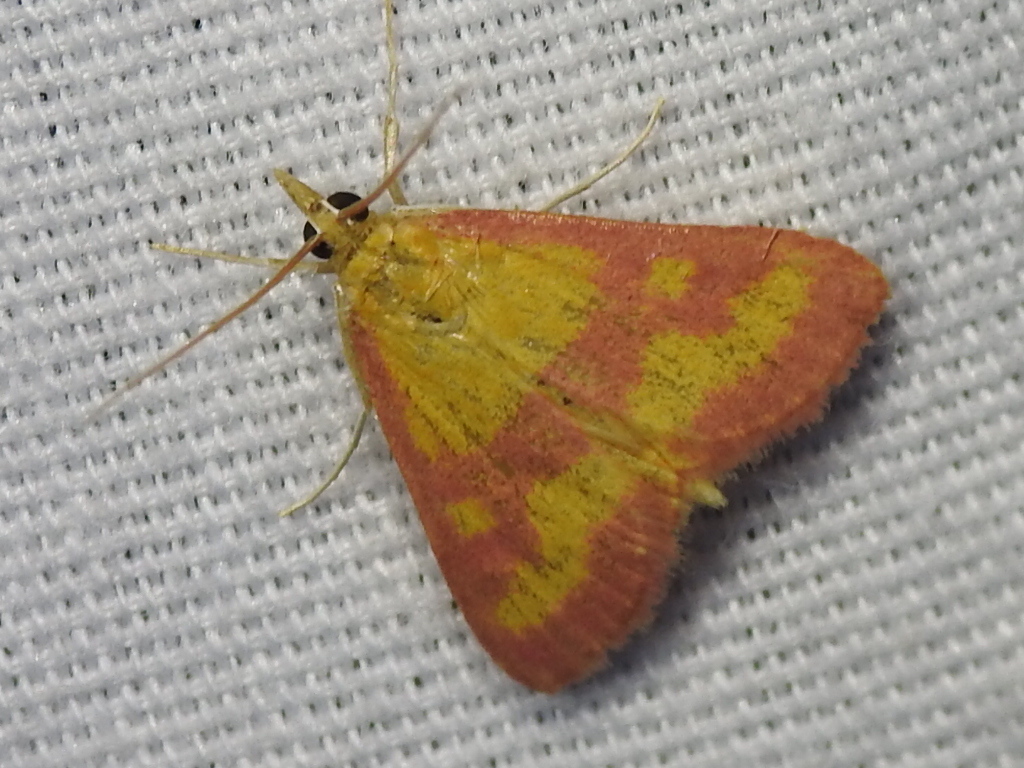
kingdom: Animalia
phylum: Arthropoda
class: Insecta
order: Lepidoptera
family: Crambidae
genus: Pyrausta
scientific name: Pyrausta laticlavia
